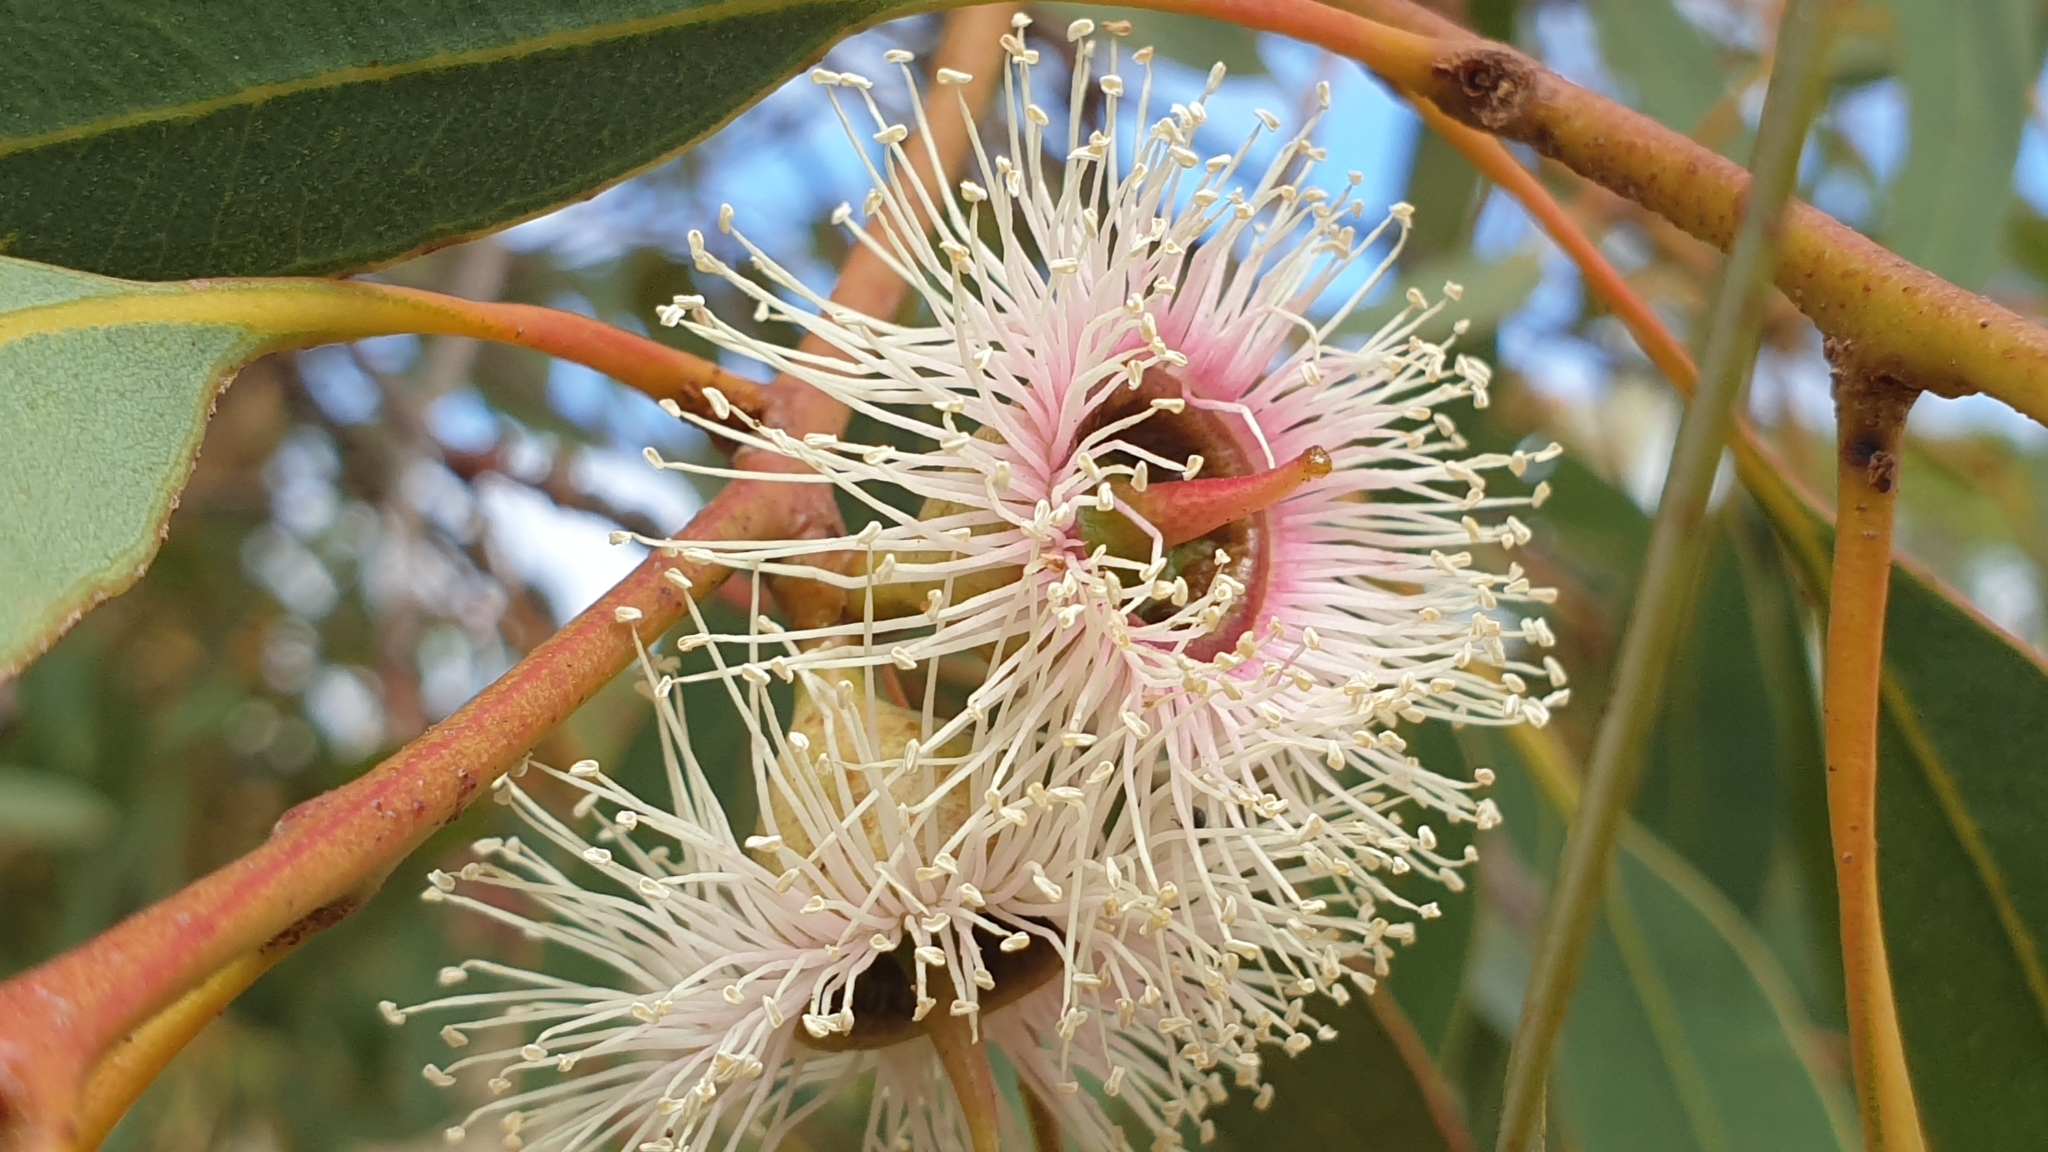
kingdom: Plantae
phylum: Tracheophyta
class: Magnoliopsida
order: Myrtales
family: Myrtaceae
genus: Eucalyptus
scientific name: Eucalyptus cosmophylla
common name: Bog-gum
